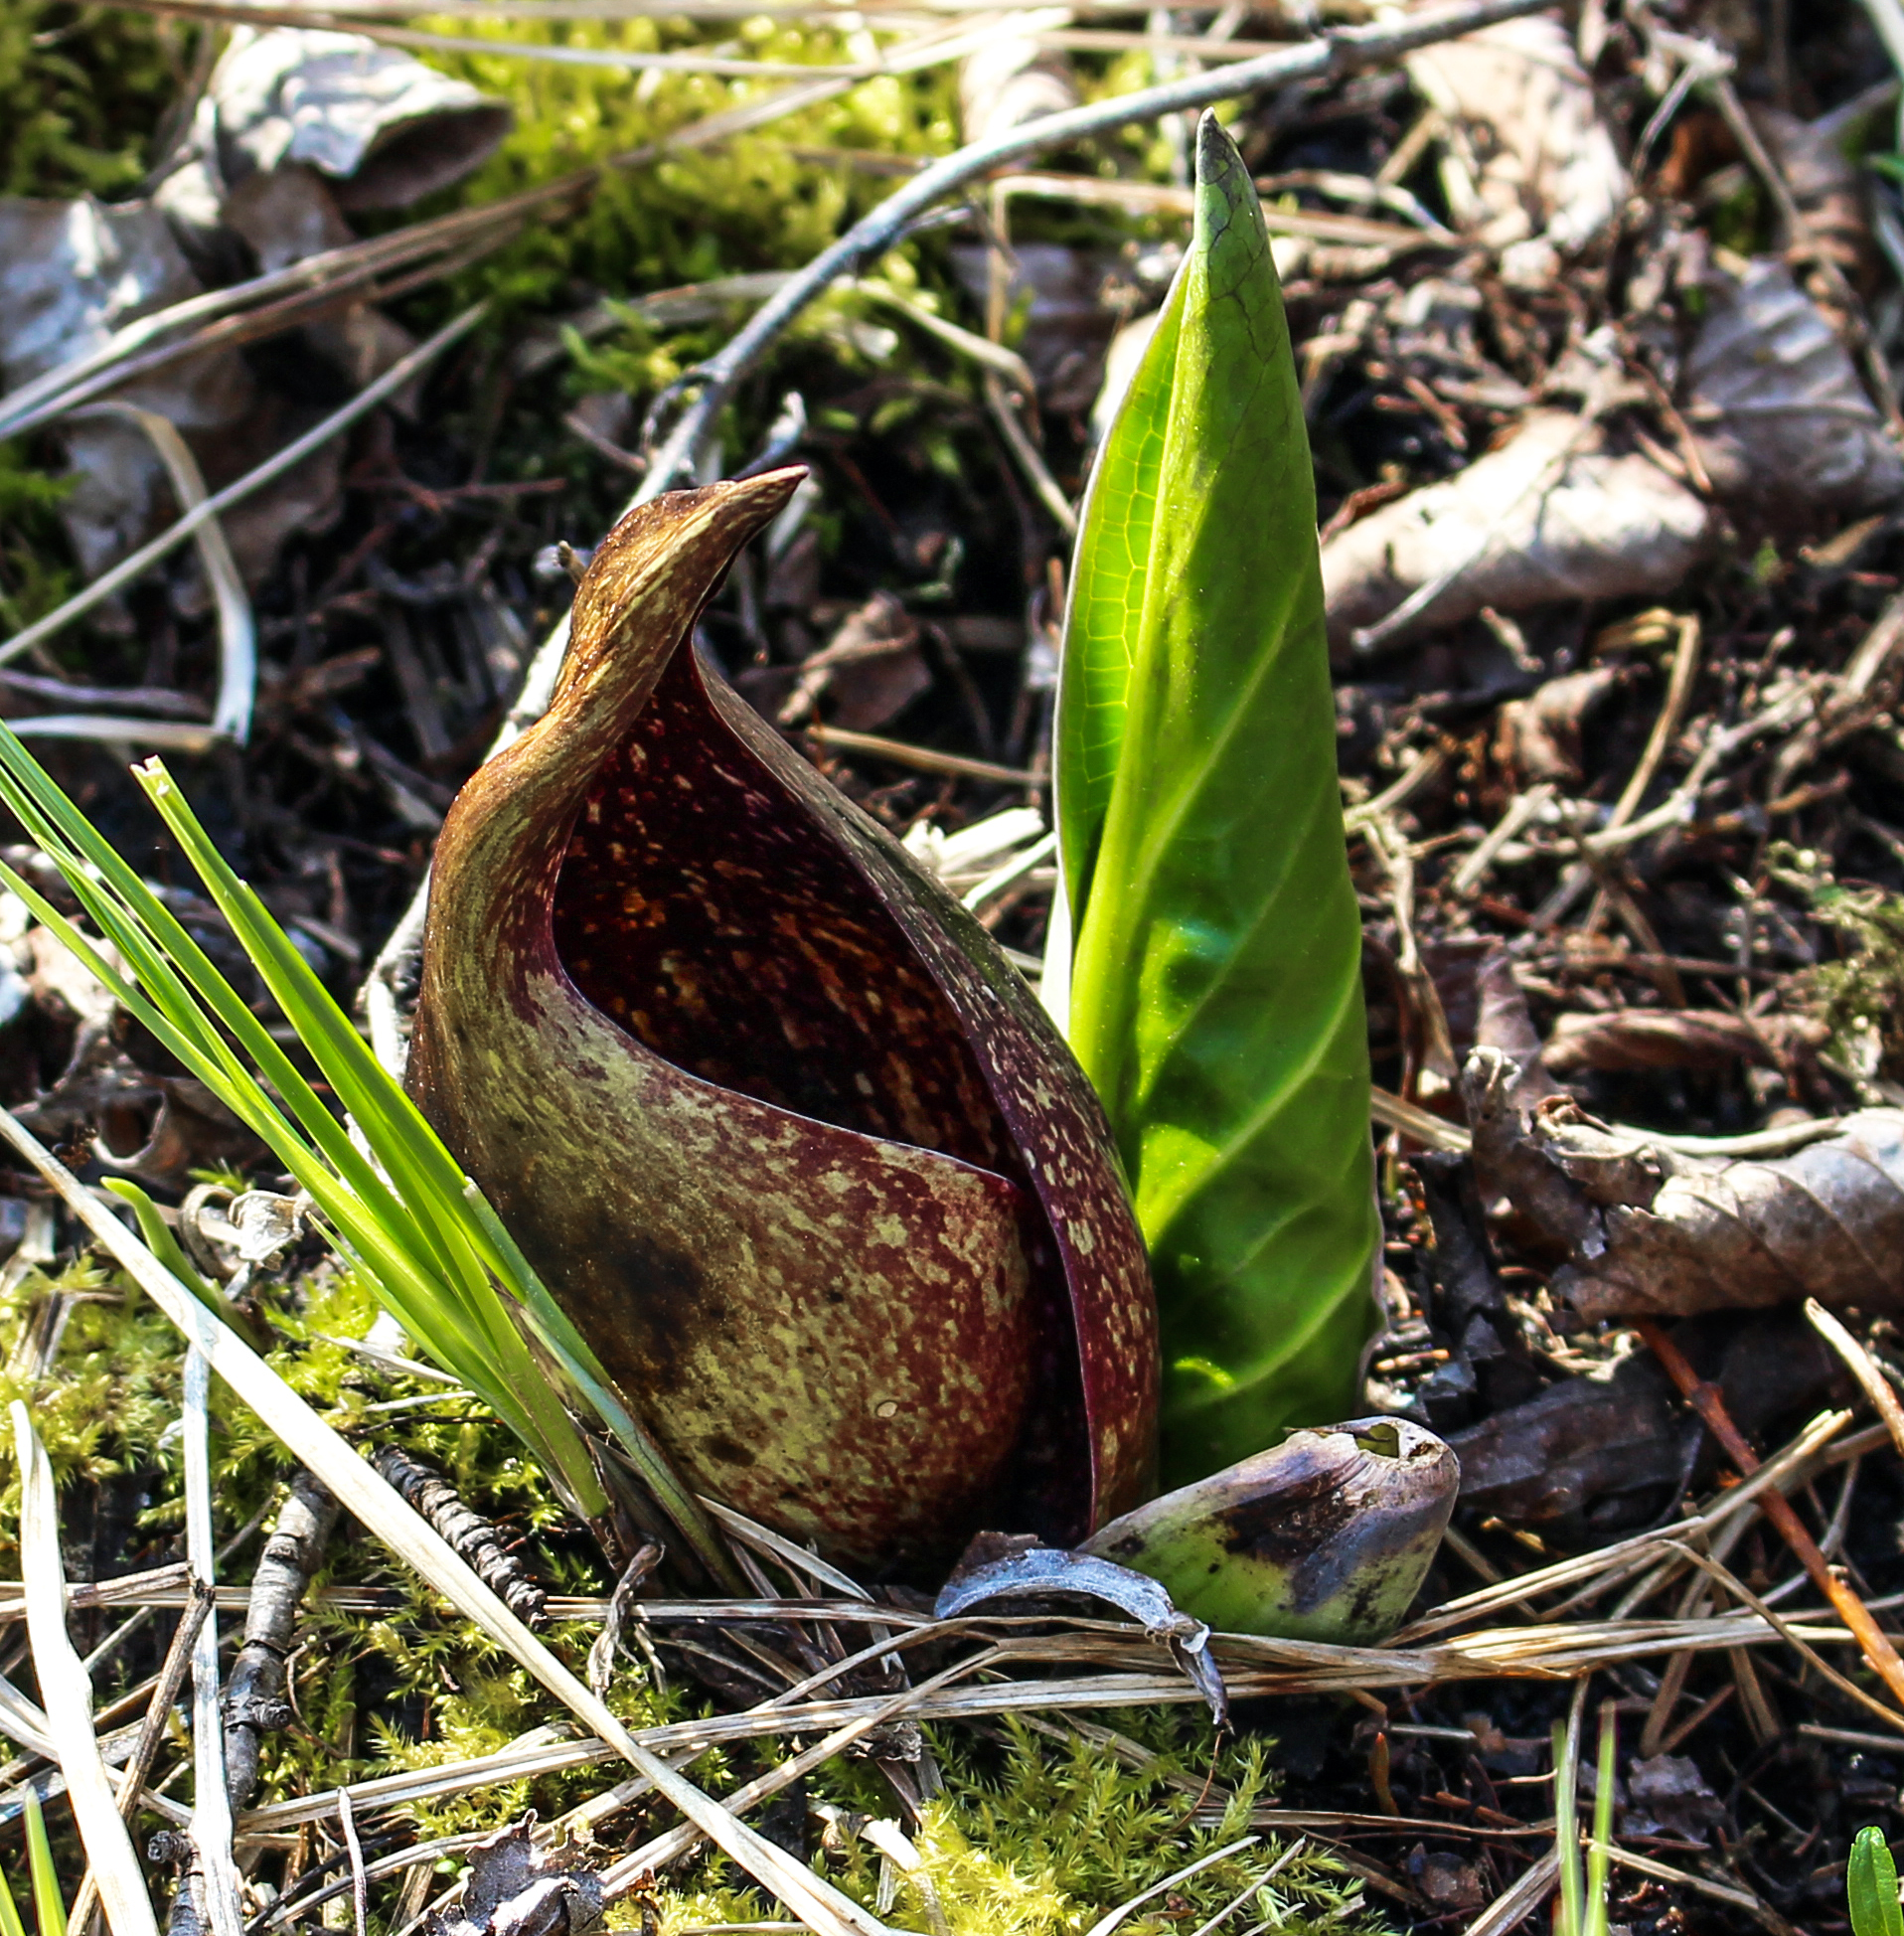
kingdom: Plantae
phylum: Tracheophyta
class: Liliopsida
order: Alismatales
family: Araceae
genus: Symplocarpus
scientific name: Symplocarpus foetidus
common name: Eastern skunk cabbage
